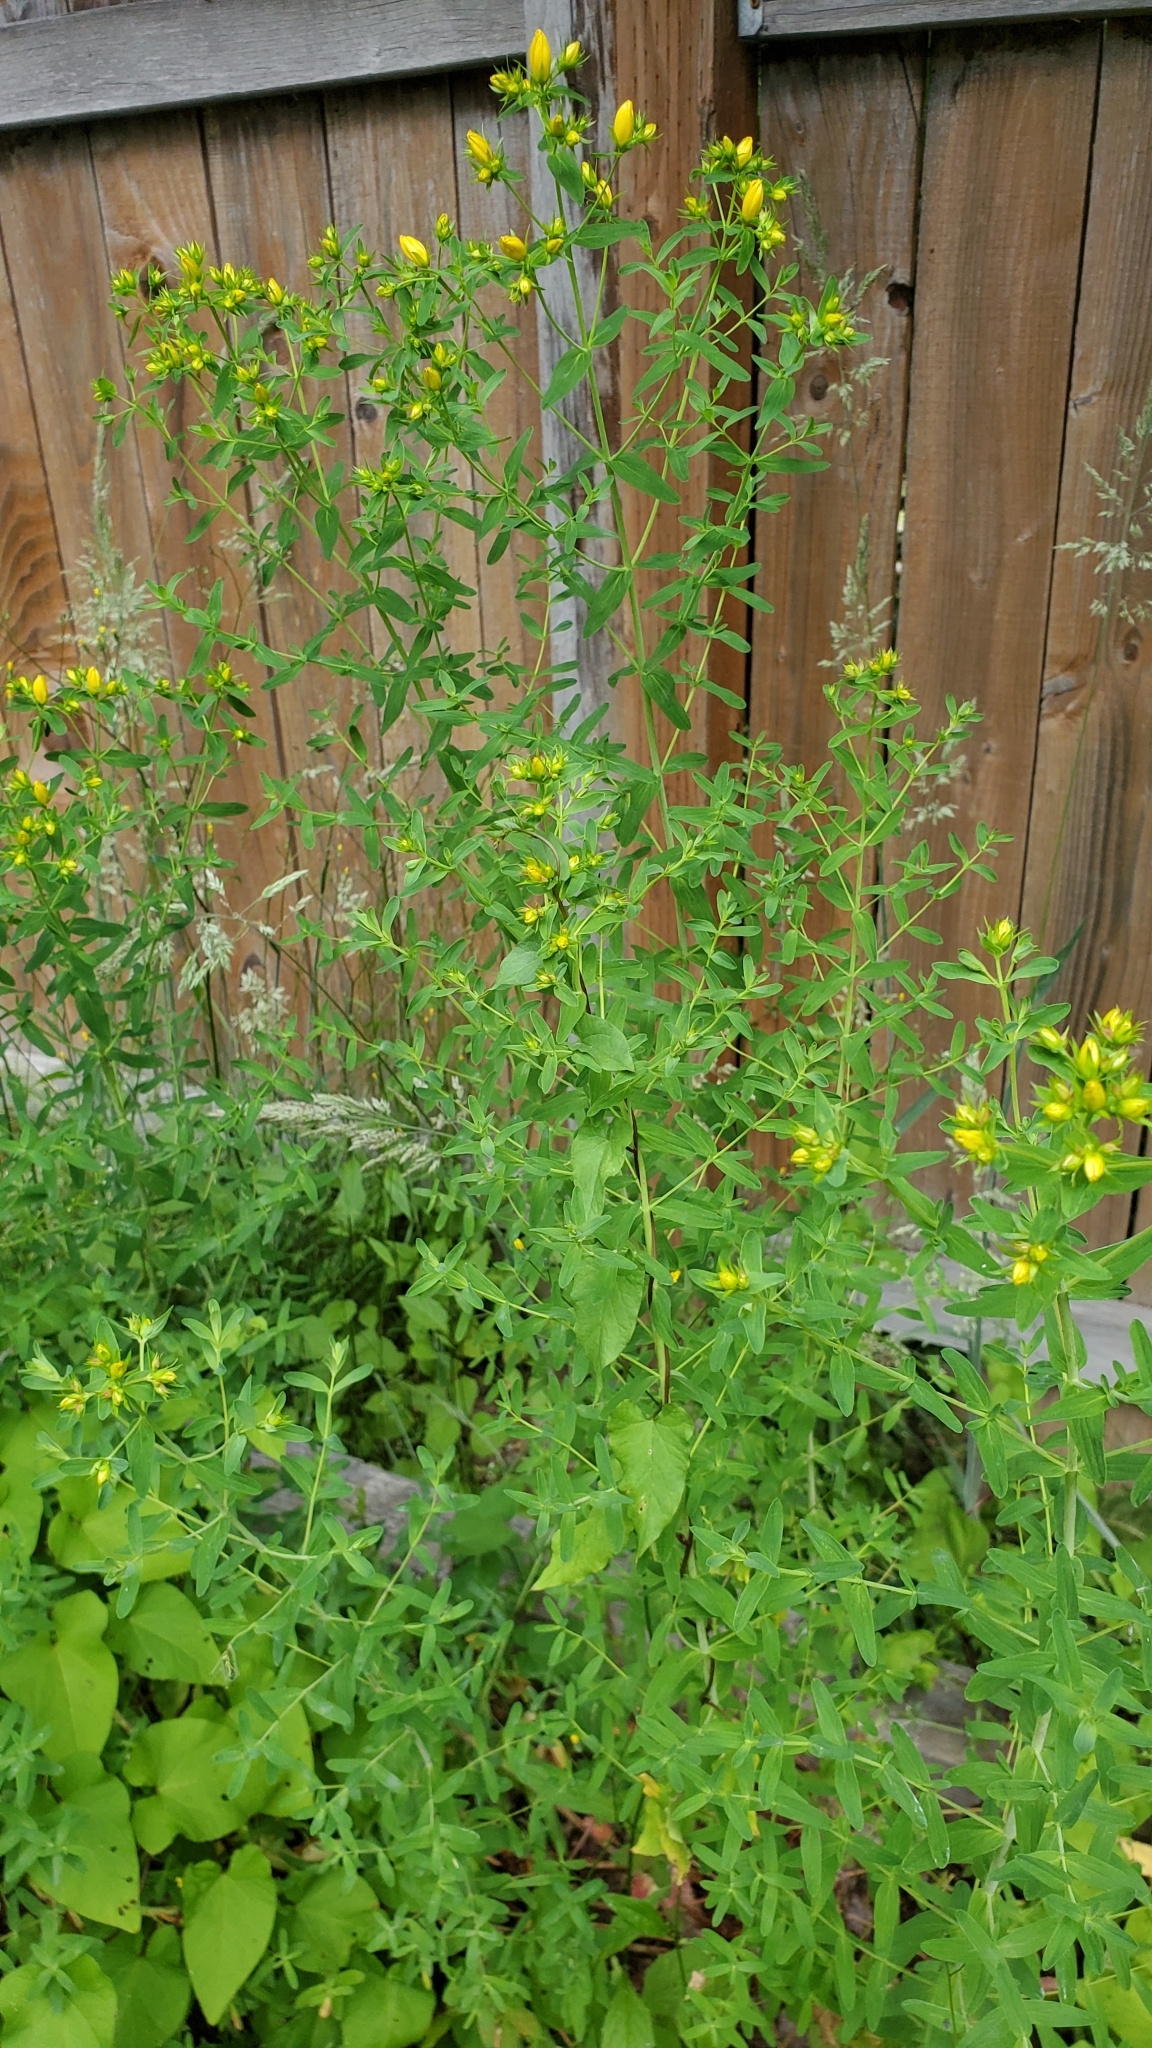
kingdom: Plantae
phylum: Tracheophyta
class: Magnoliopsida
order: Malpighiales
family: Hypericaceae
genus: Hypericum
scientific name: Hypericum perforatum
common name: Common st. johnswort
